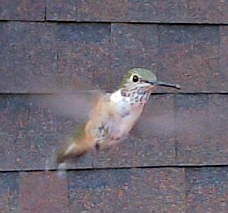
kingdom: Animalia
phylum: Chordata
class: Aves
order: Apodiformes
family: Trochilidae
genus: Selasphorus
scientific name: Selasphorus platycercus
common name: Broad-tailed hummingbird
